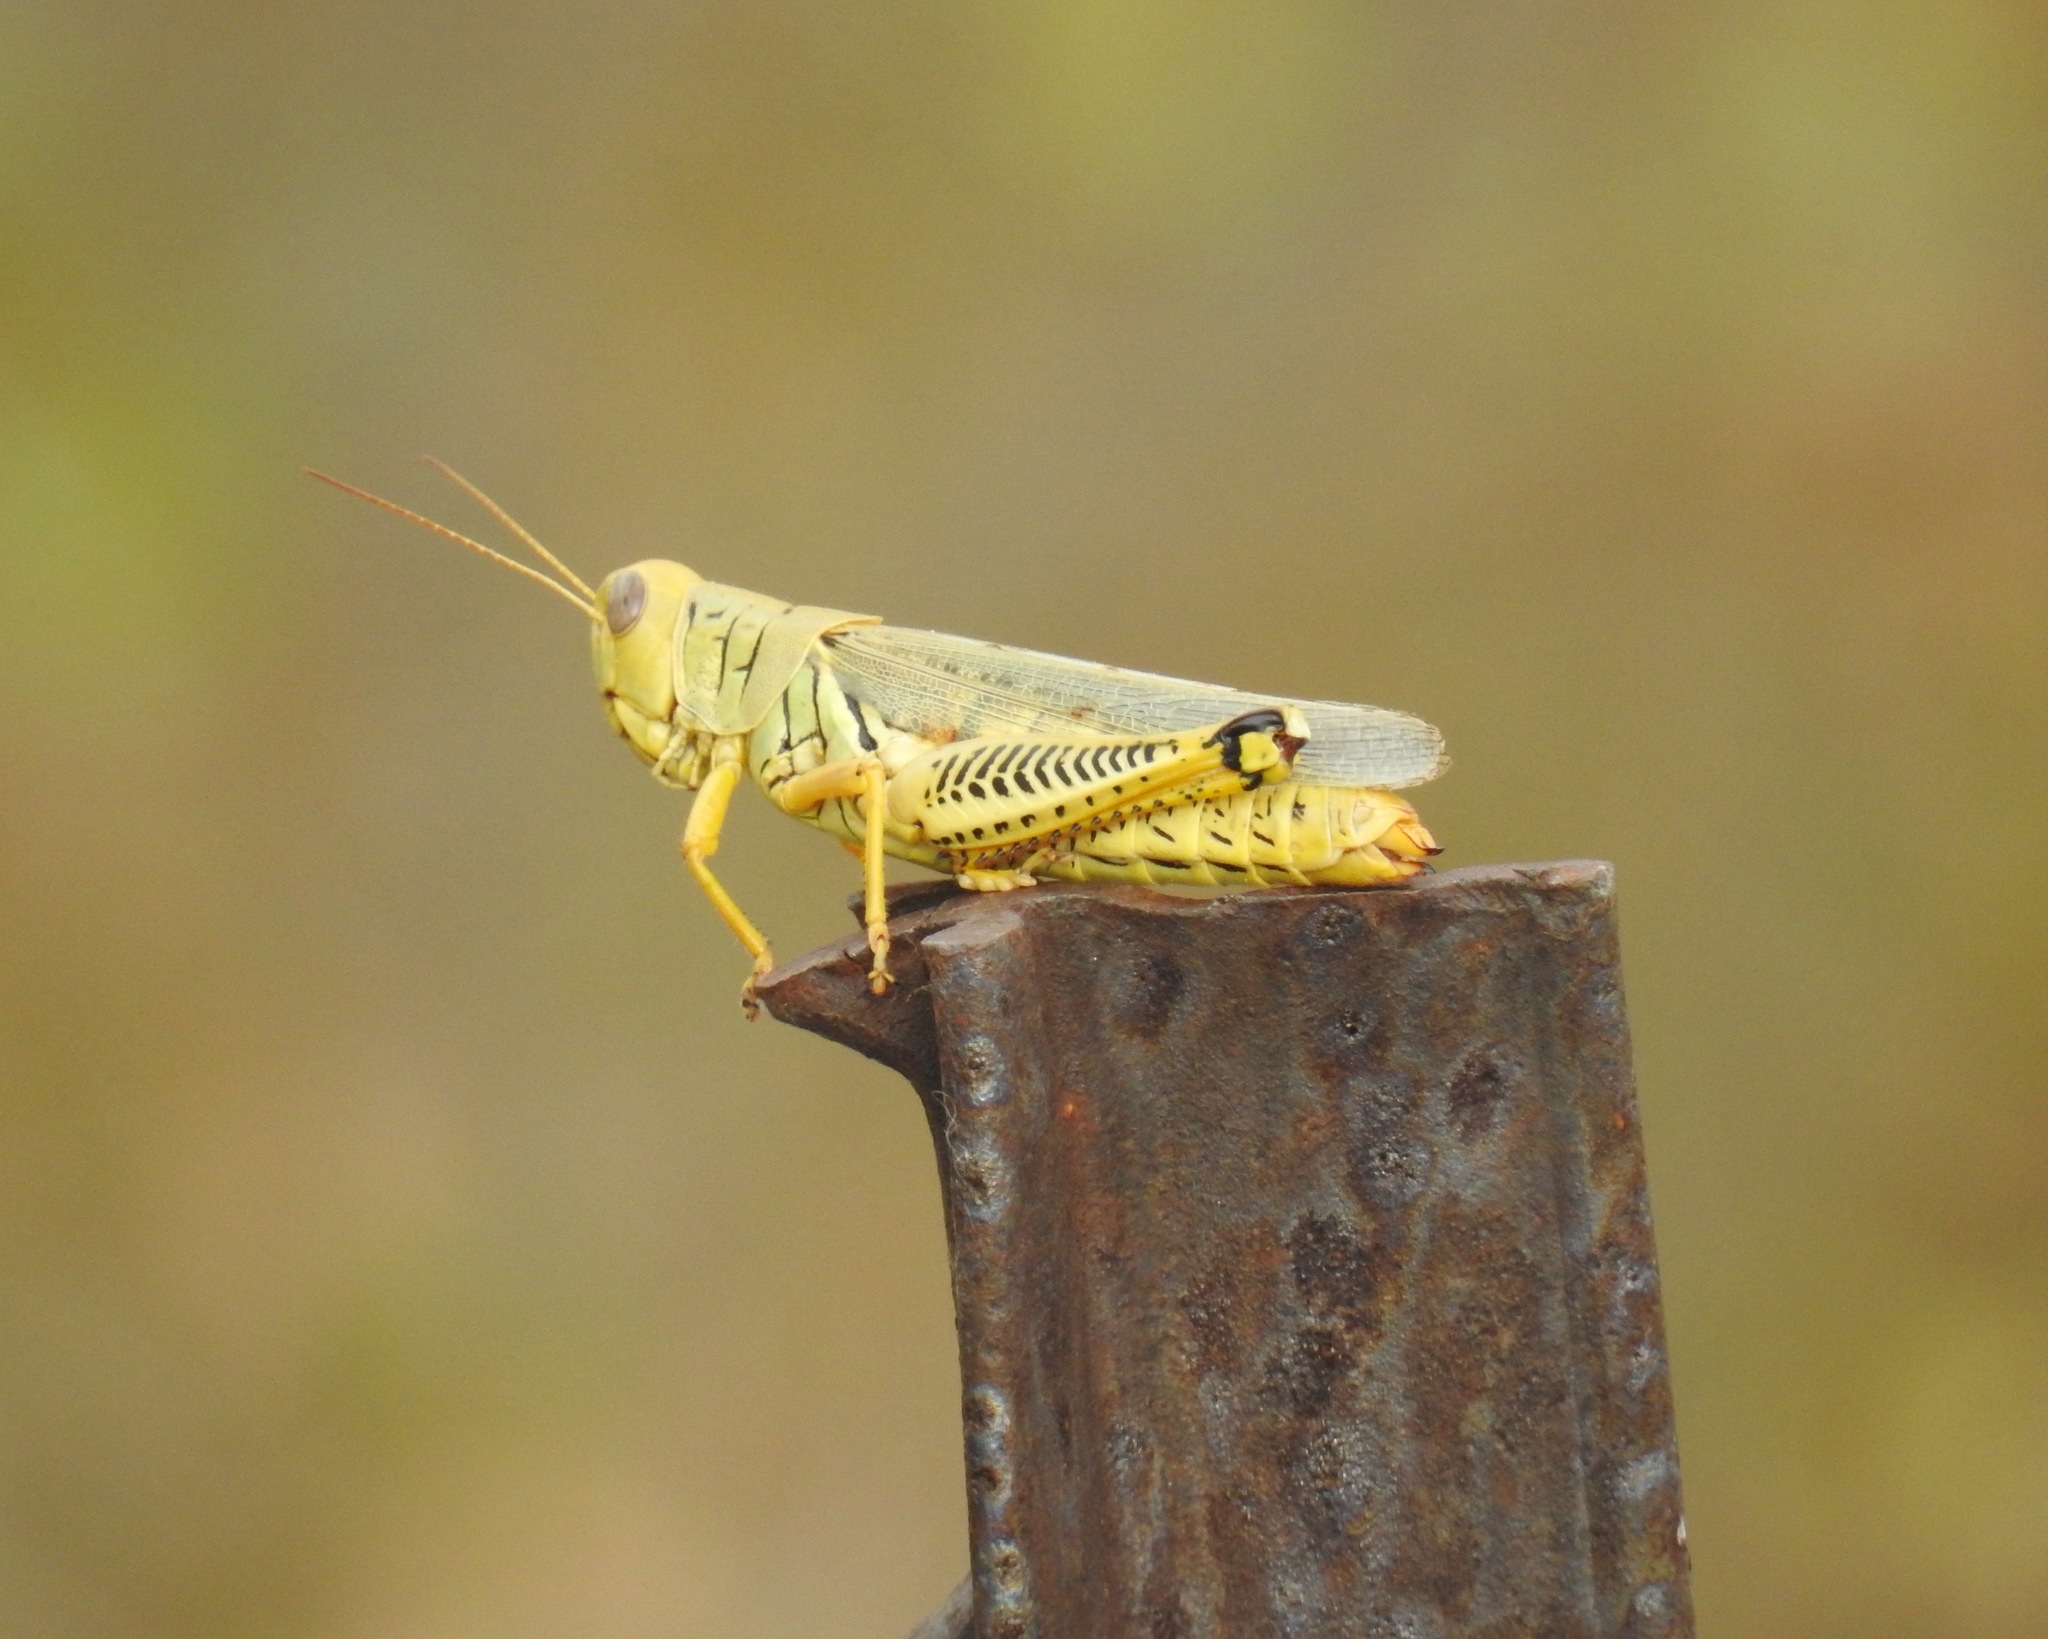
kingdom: Animalia
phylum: Arthropoda
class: Insecta
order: Orthoptera
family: Acrididae
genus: Melanoplus
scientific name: Melanoplus differentialis
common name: Differential grasshopper
